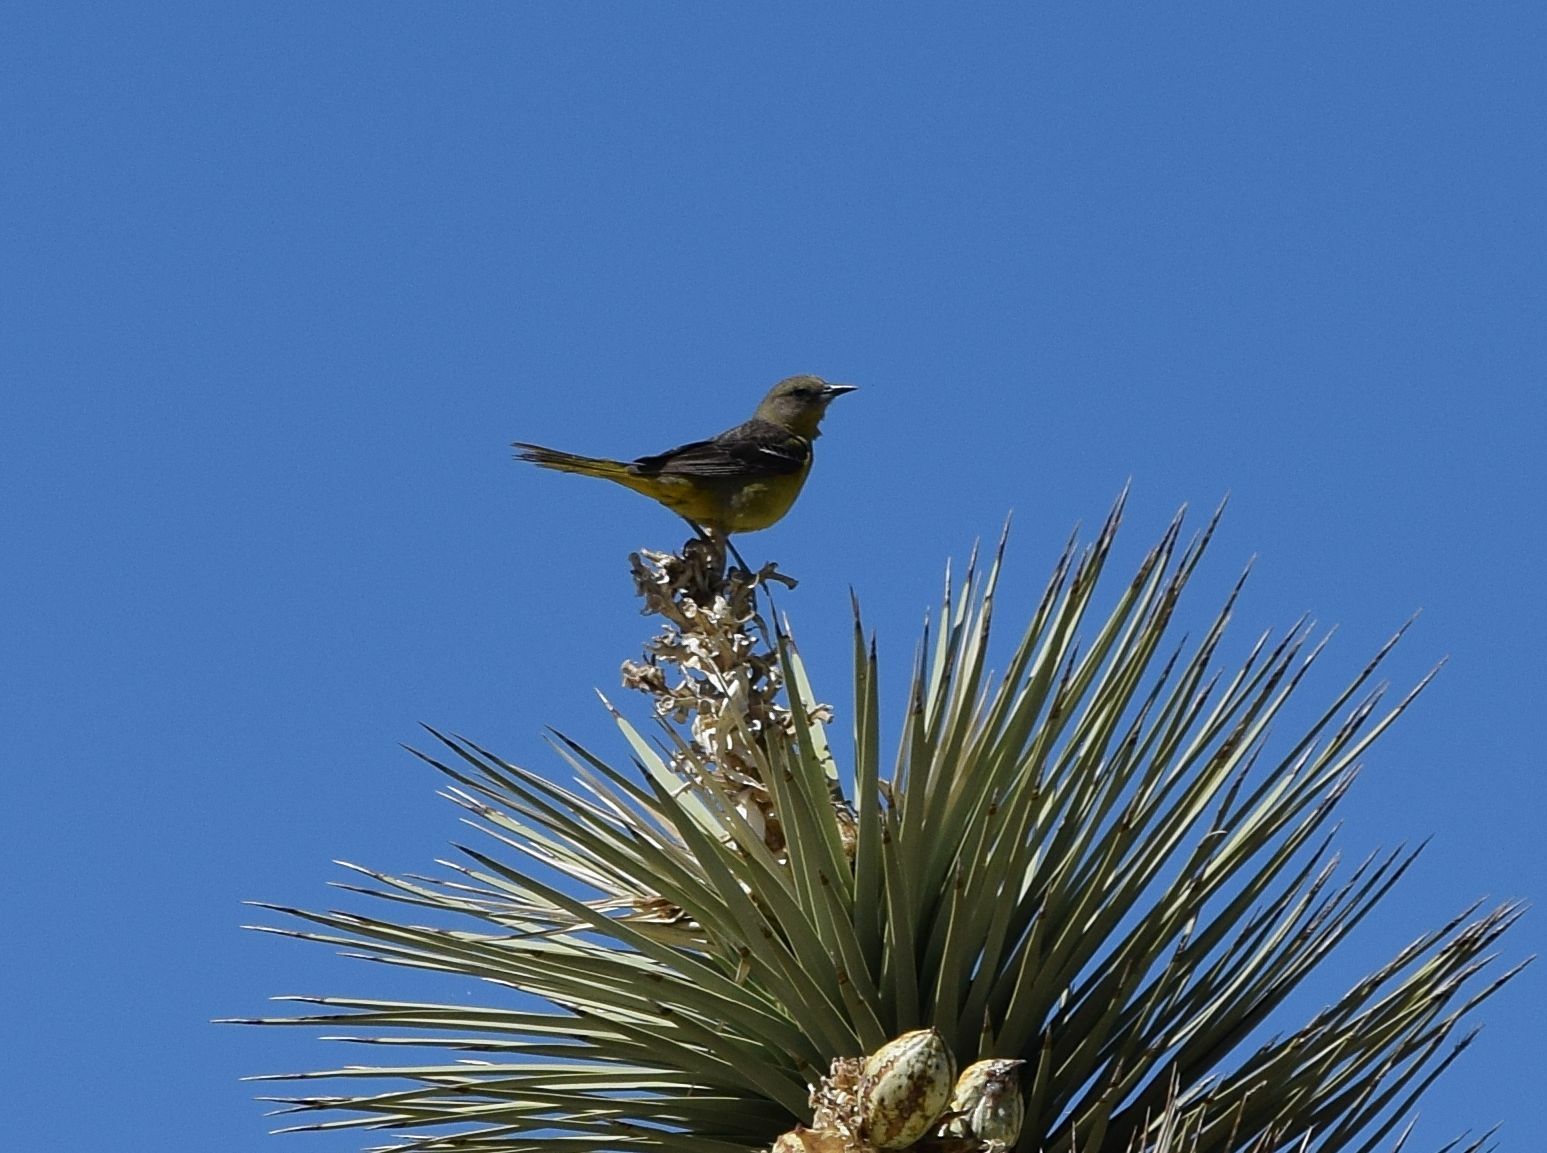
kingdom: Animalia
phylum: Chordata
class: Aves
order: Passeriformes
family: Icteridae
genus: Icterus
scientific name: Icterus parisorum
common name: Scott's oriole
